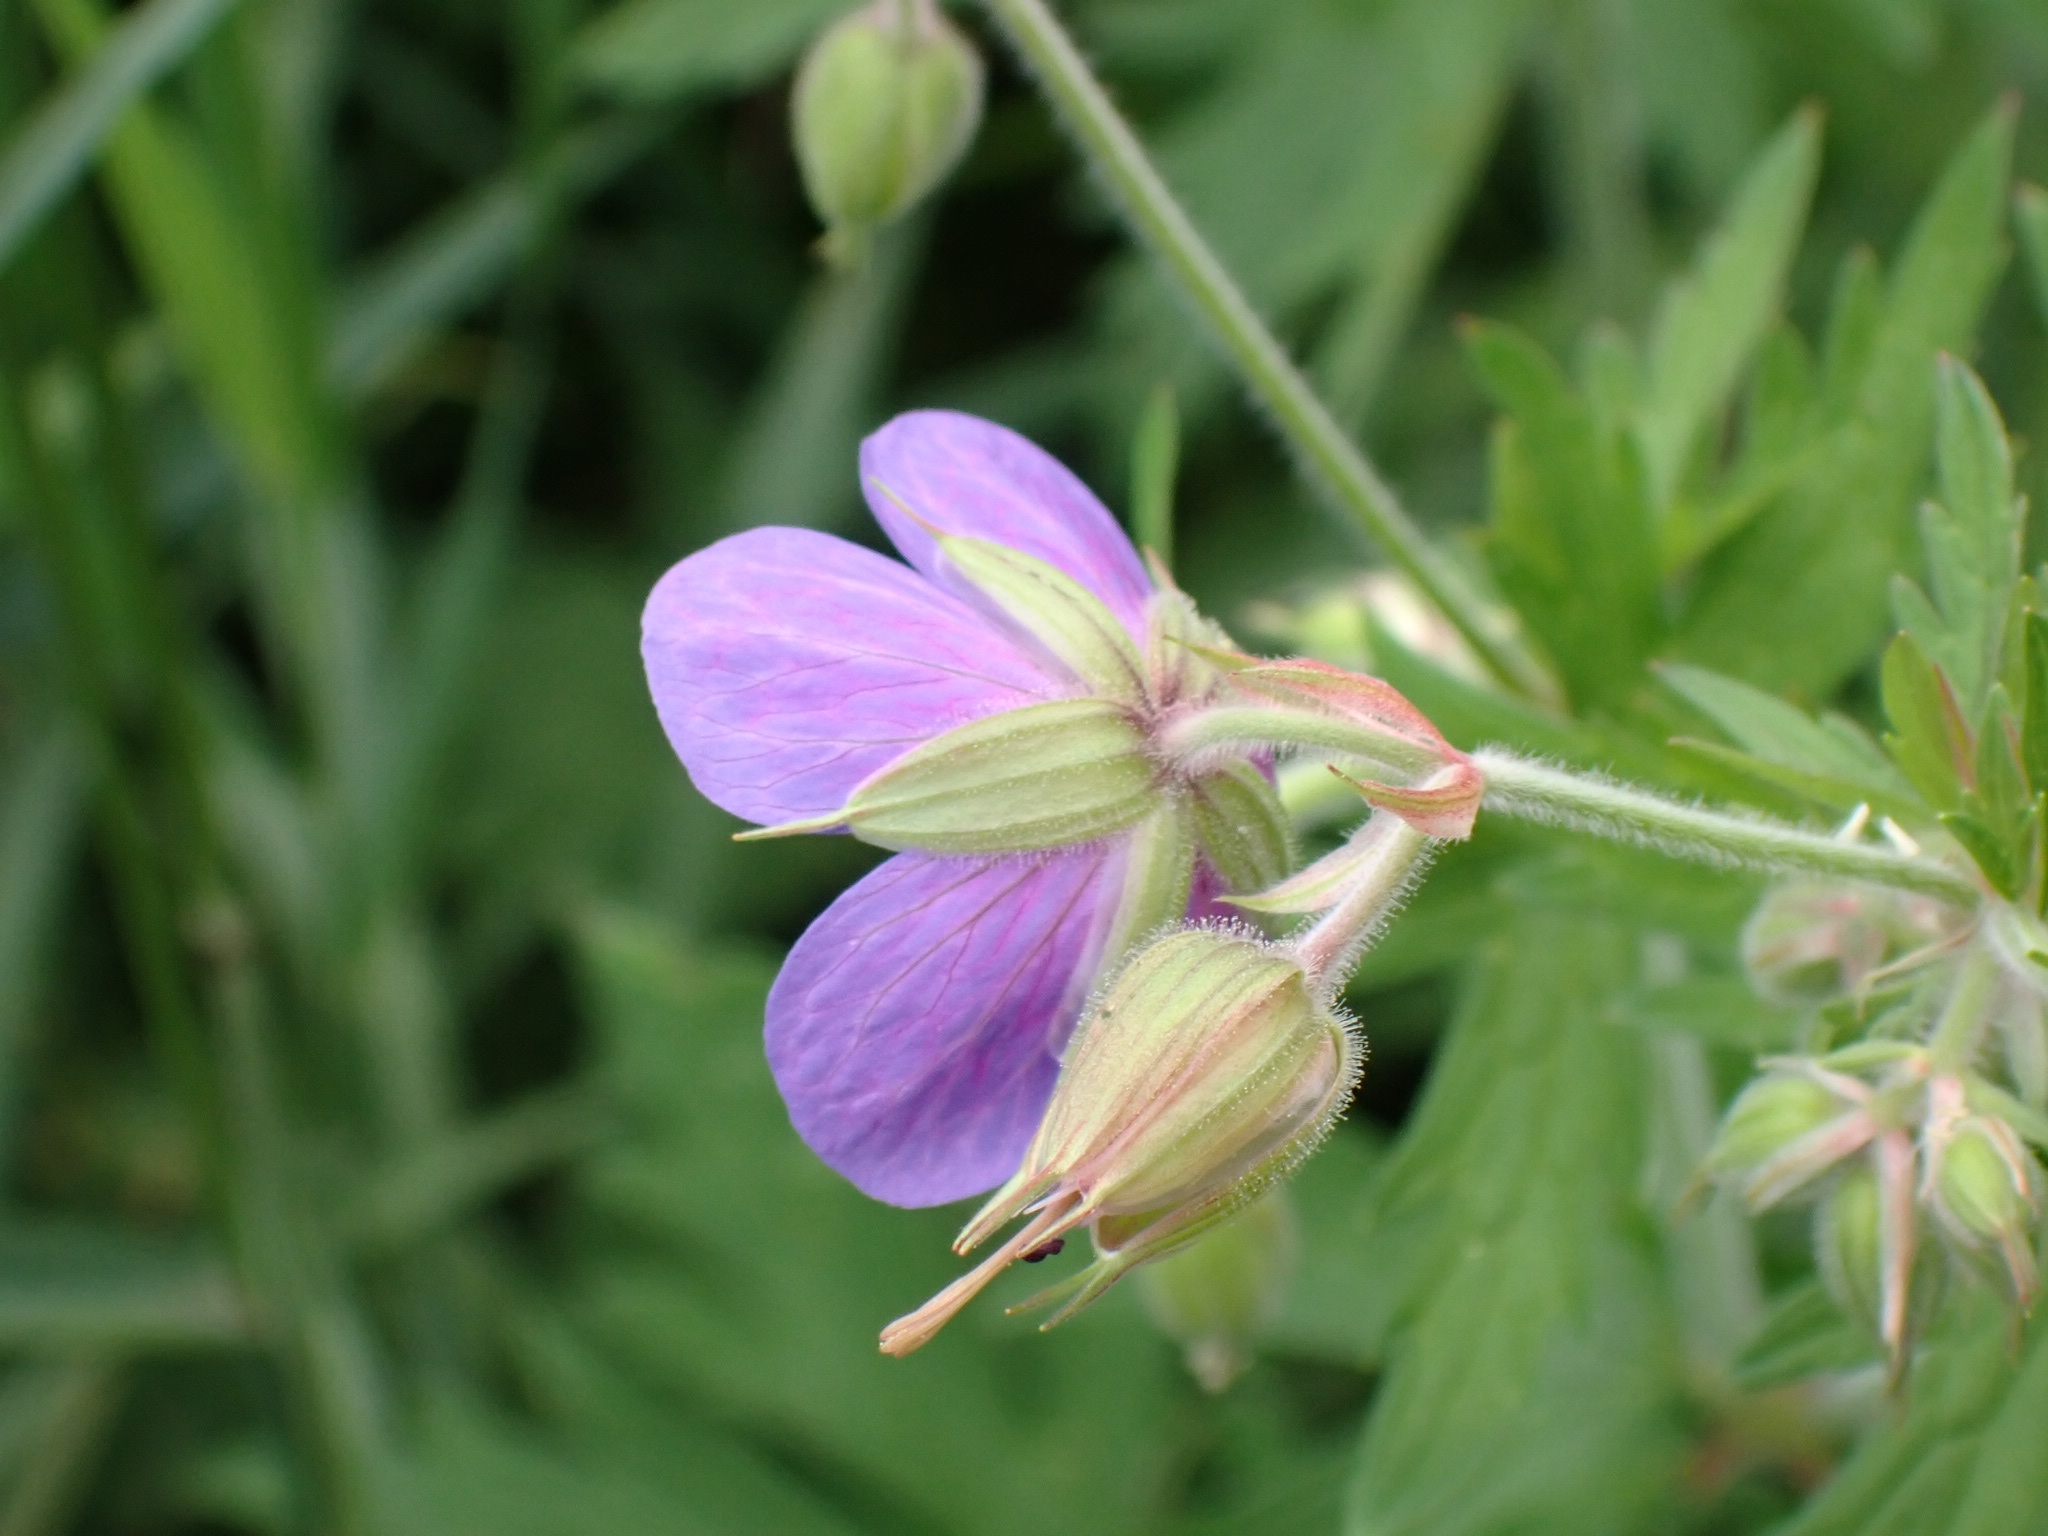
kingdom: Plantae
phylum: Tracheophyta
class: Magnoliopsida
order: Geraniales
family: Geraniaceae
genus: Geranium
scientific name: Geranium pratense
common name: Meadow crane's-bill
